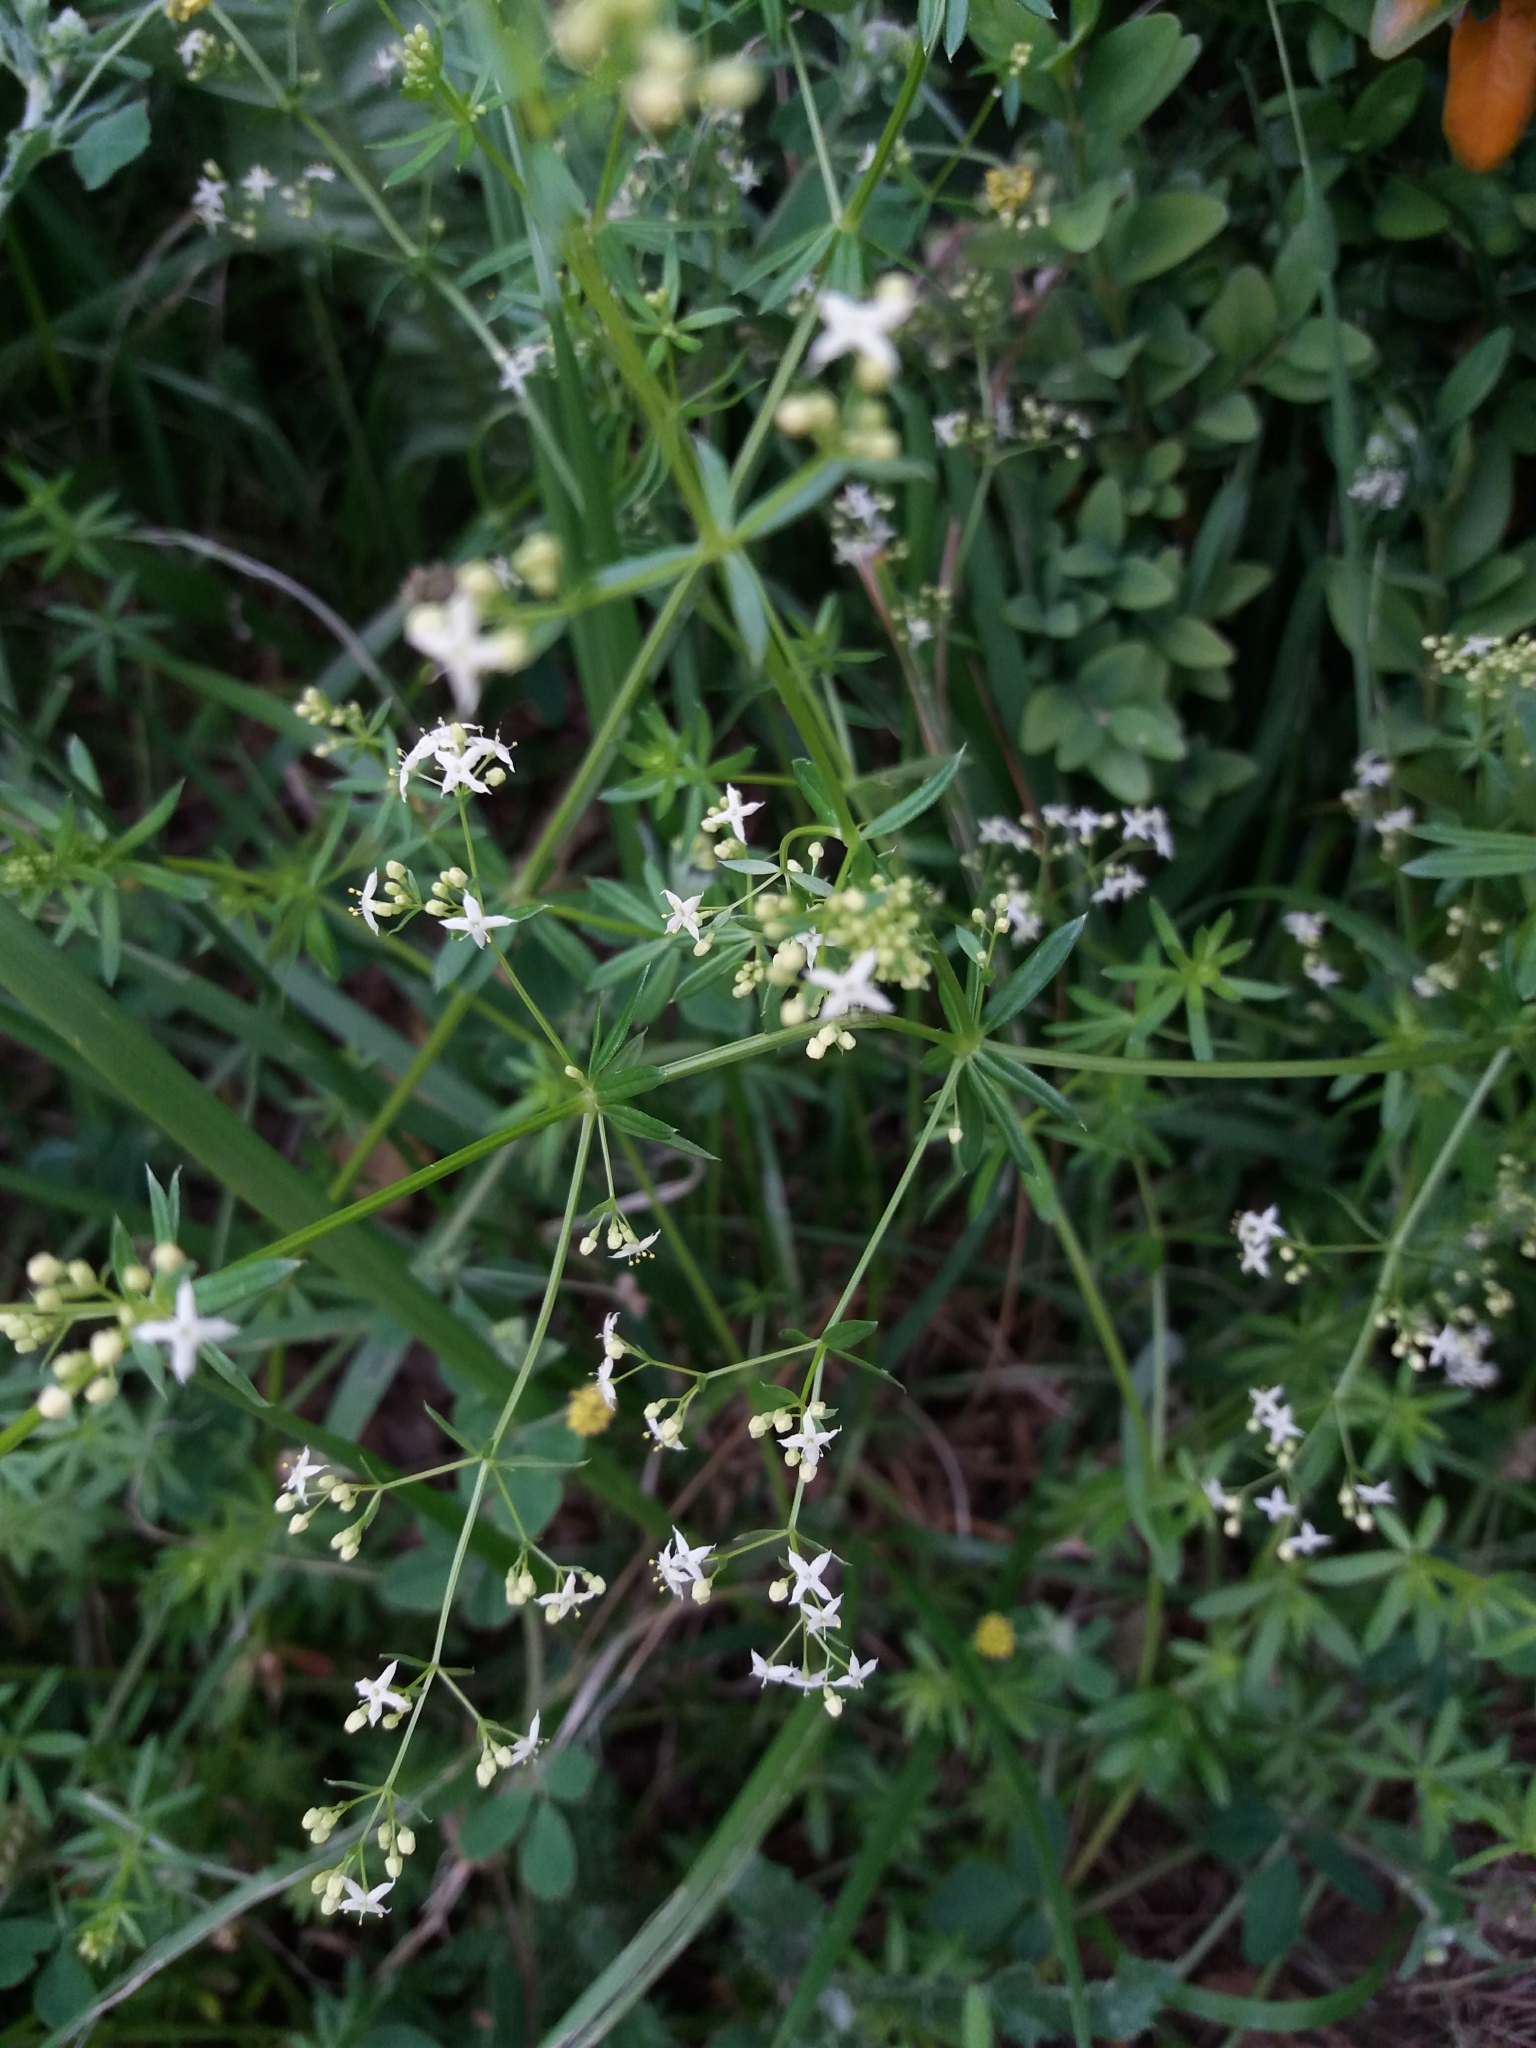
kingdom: Plantae
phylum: Tracheophyta
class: Magnoliopsida
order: Gentianales
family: Rubiaceae
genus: Galium
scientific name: Galium mollugo
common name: Hedge bedstraw
